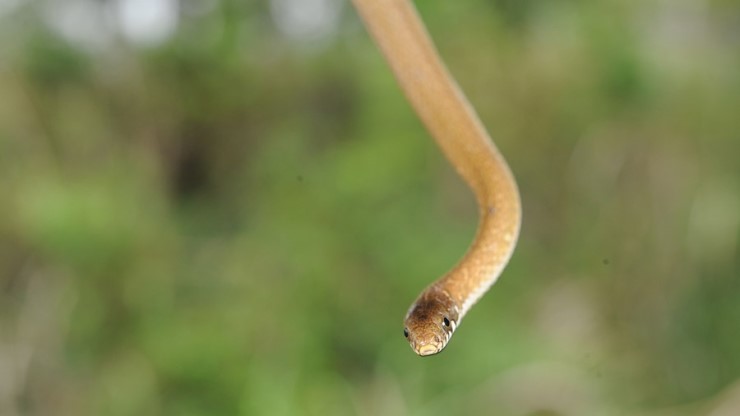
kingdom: Animalia
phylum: Chordata
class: Squamata
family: Colubridae
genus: Hebius
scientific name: Hebius vibakari
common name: Japanese keelback
